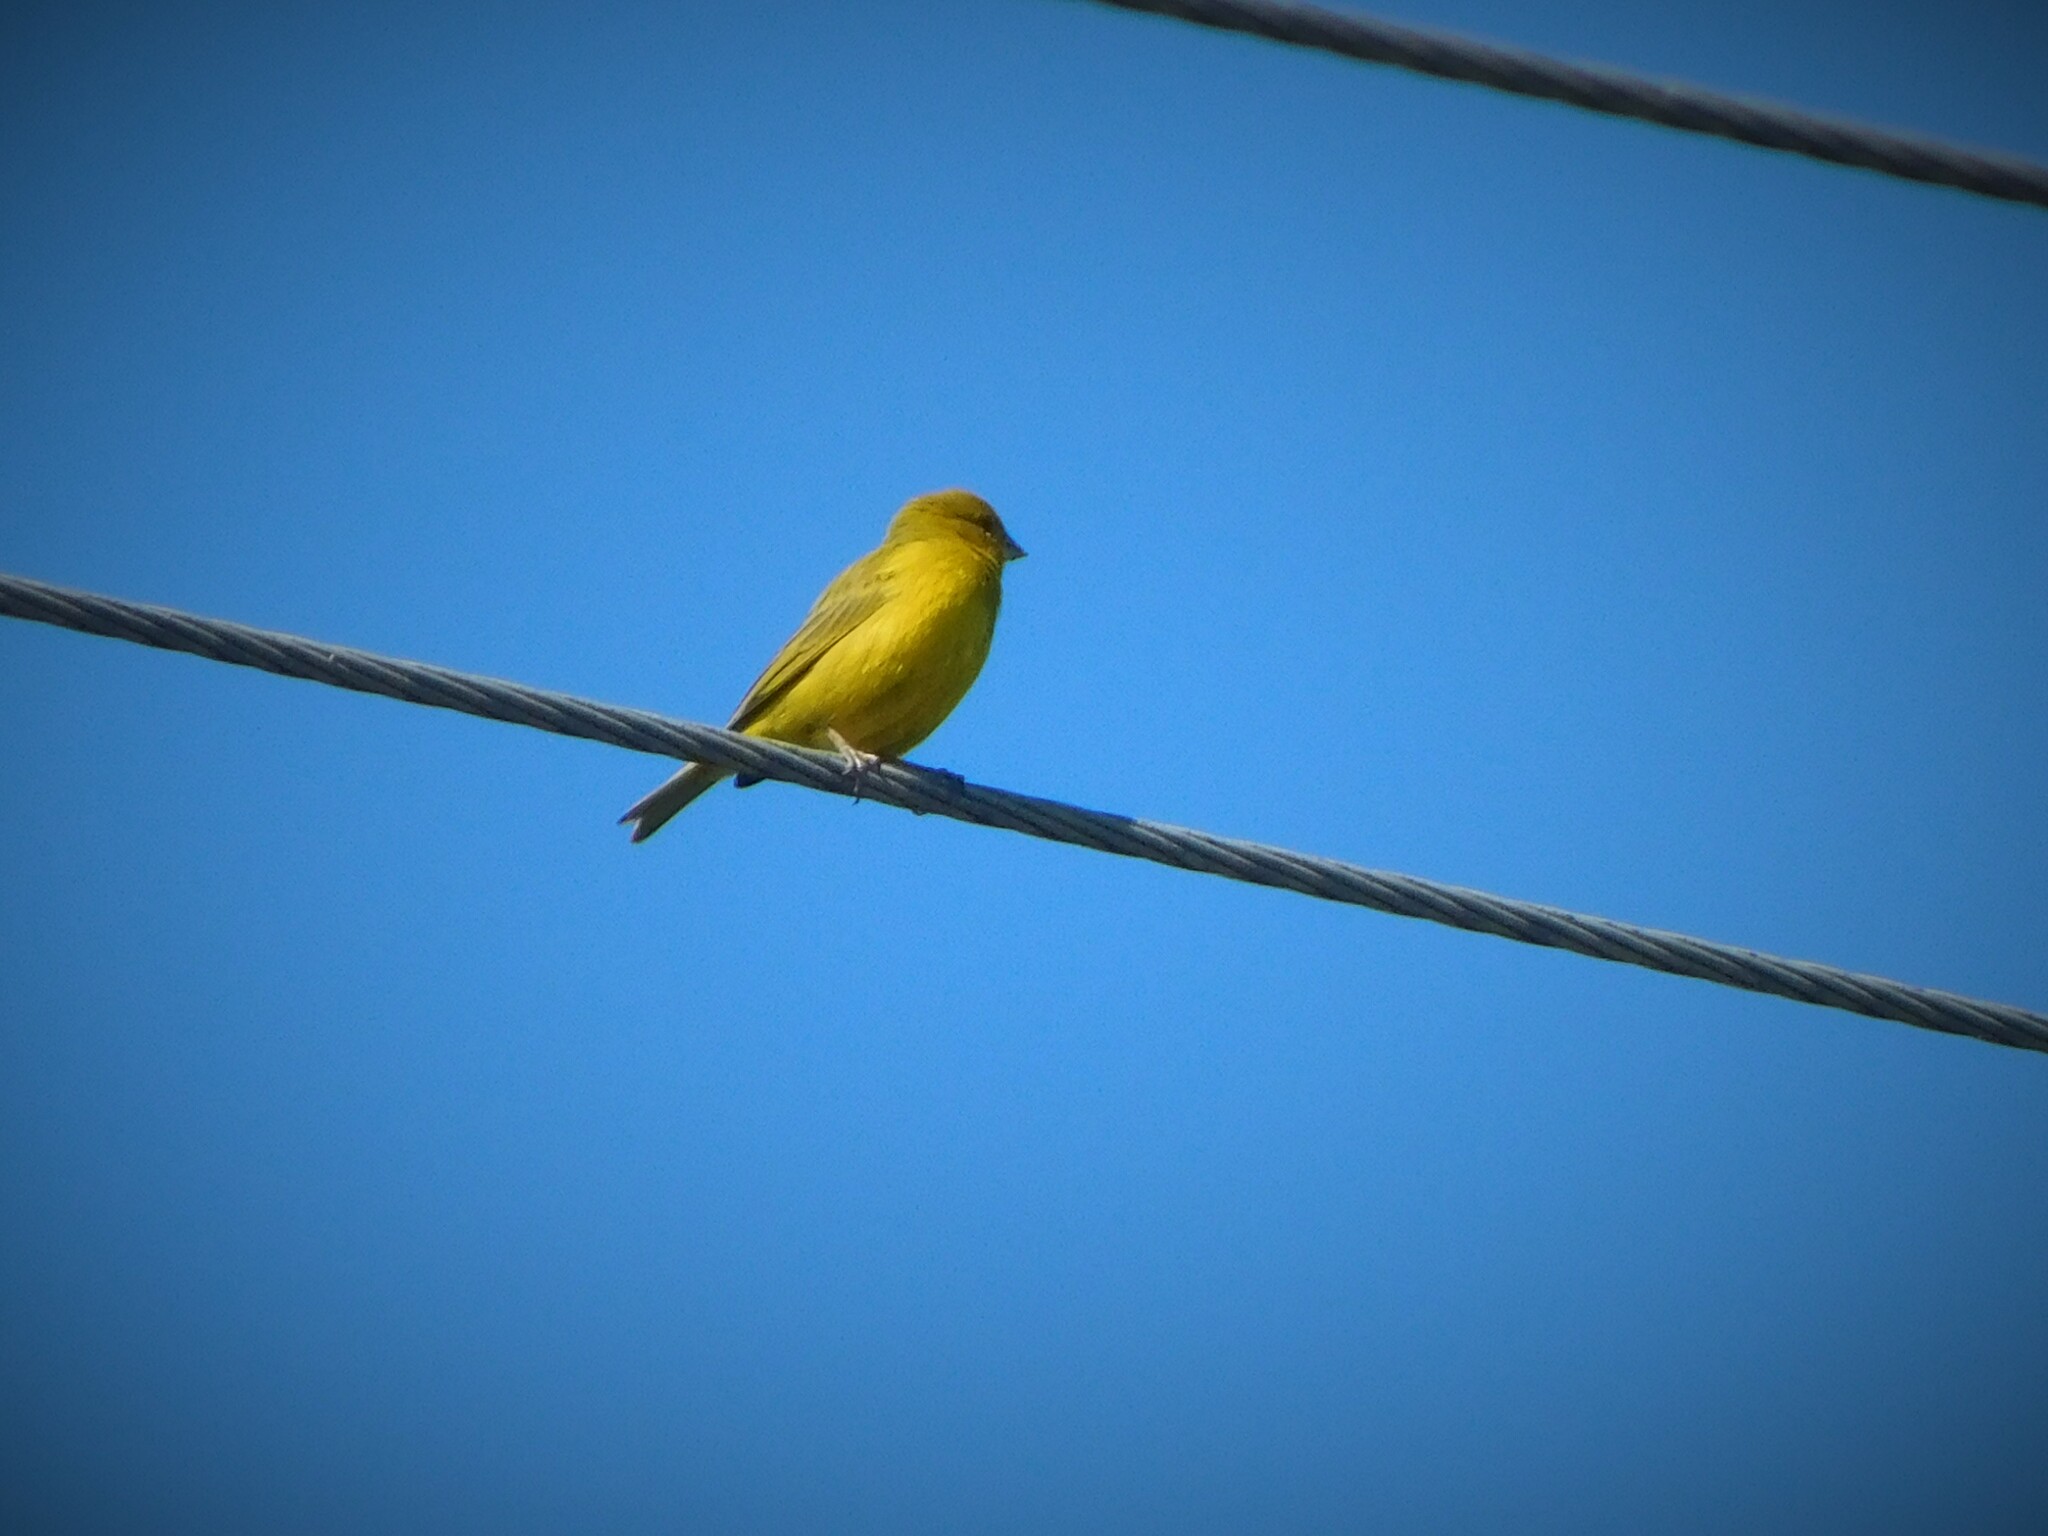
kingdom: Animalia
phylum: Chordata
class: Aves
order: Passeriformes
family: Thraupidae
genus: Sicalis
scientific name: Sicalis flaveola
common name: Saffron finch
